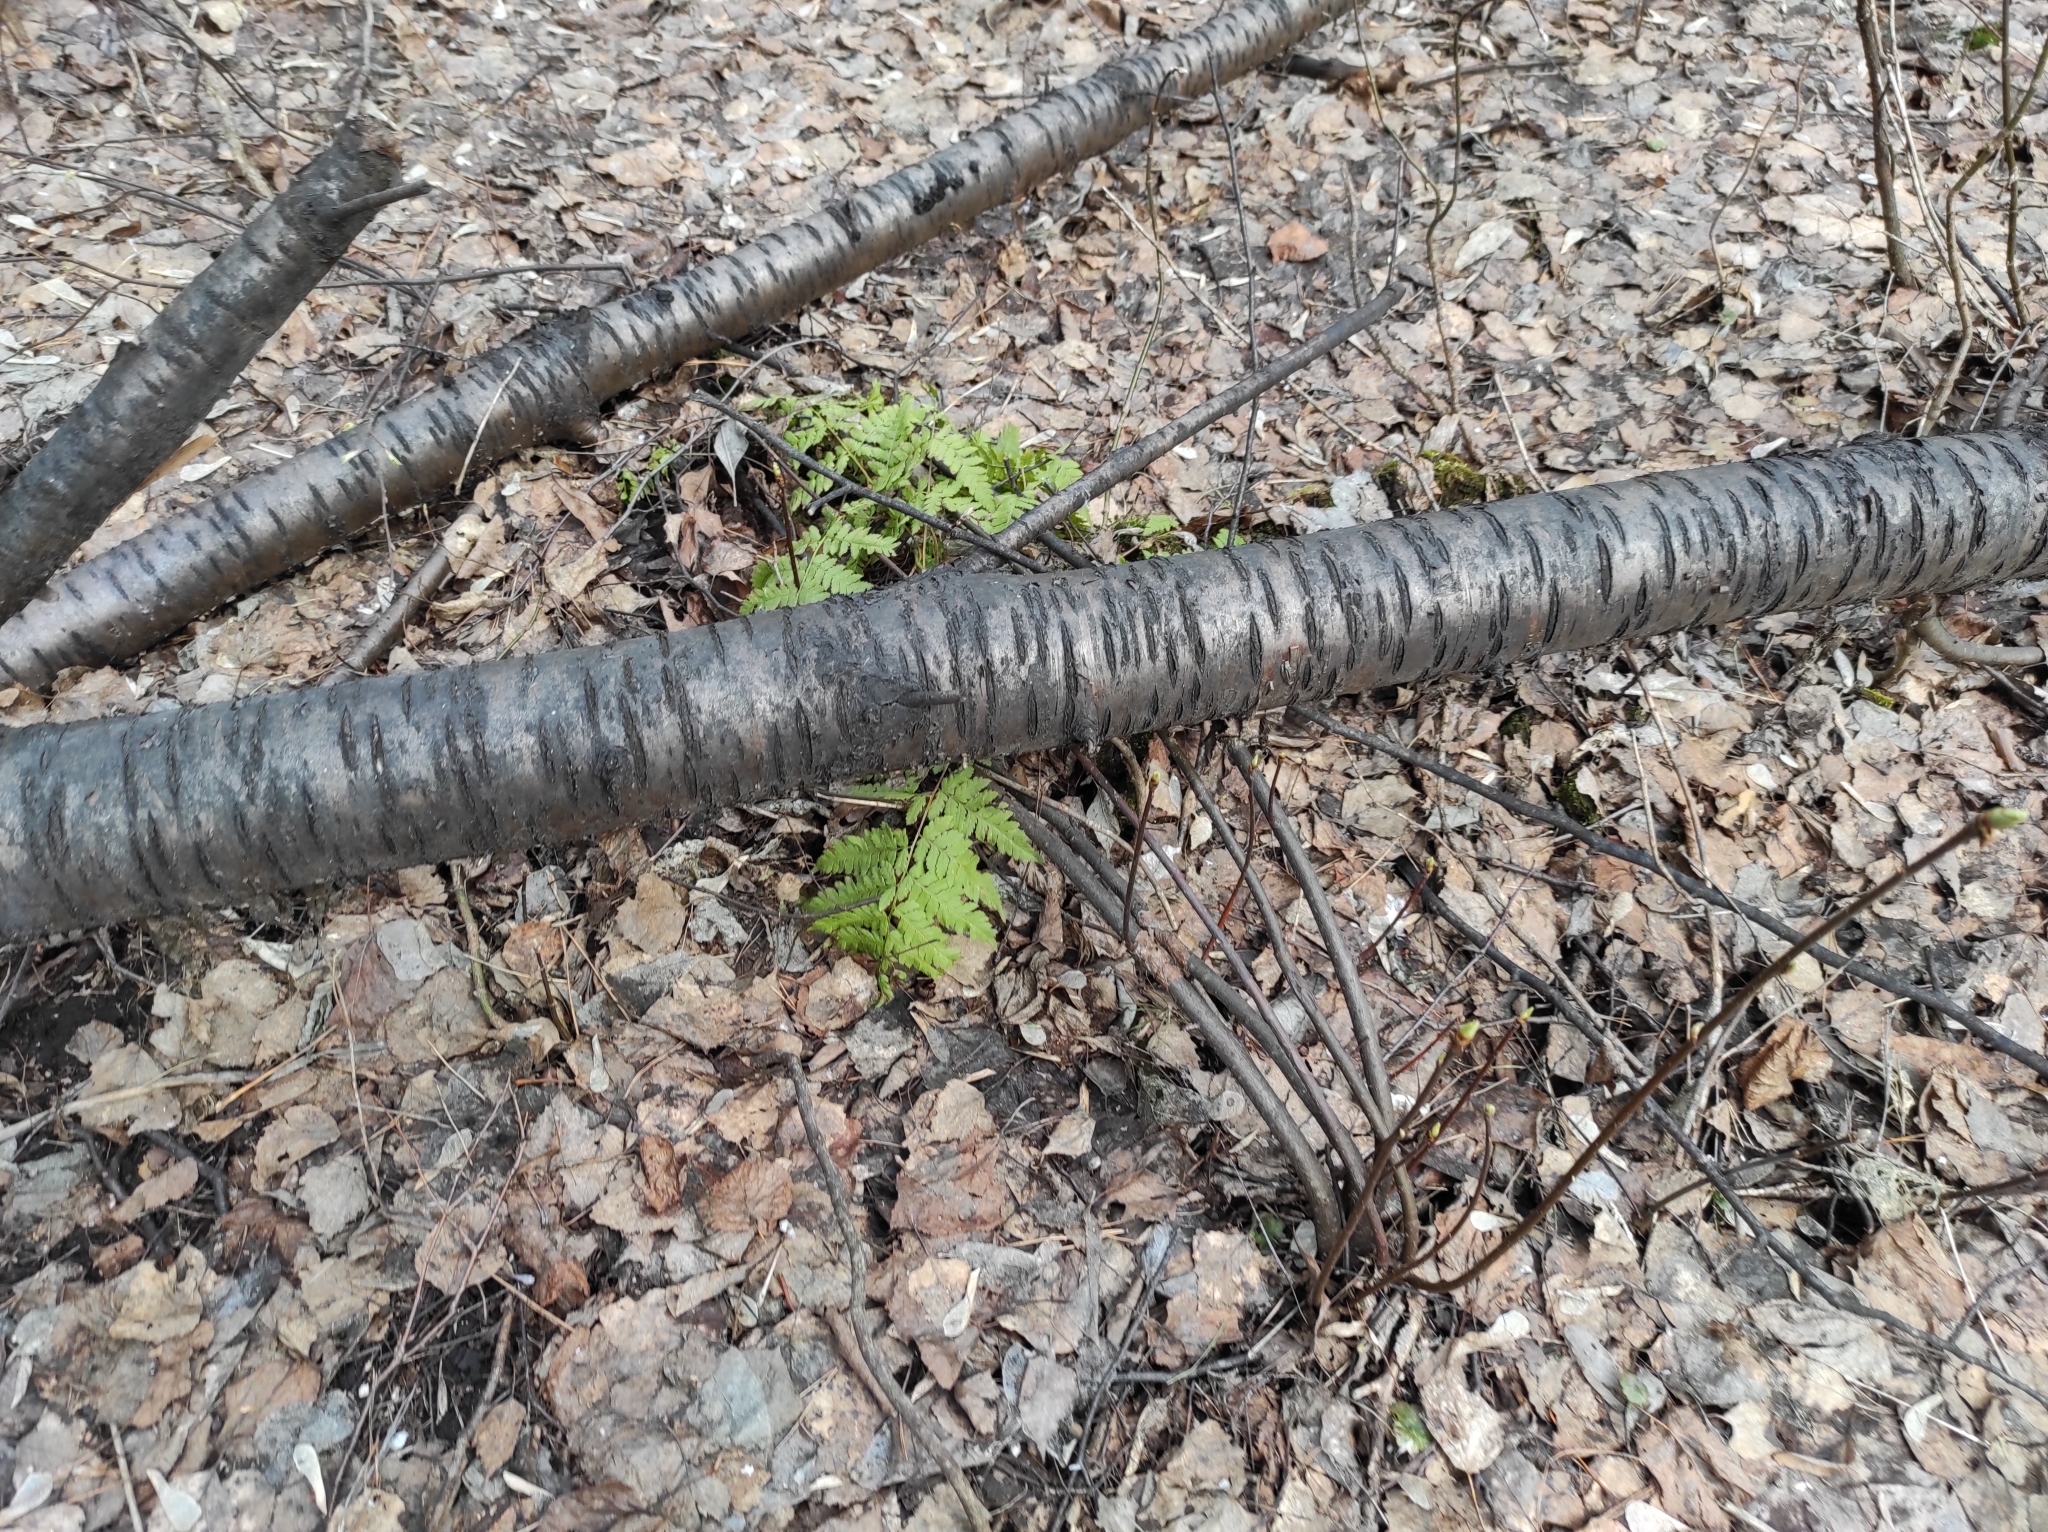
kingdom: Plantae
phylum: Tracheophyta
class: Polypodiopsida
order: Polypodiales
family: Dryopteridaceae
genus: Dryopteris
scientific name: Dryopteris carthusiana
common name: Narrow buckler-fern
